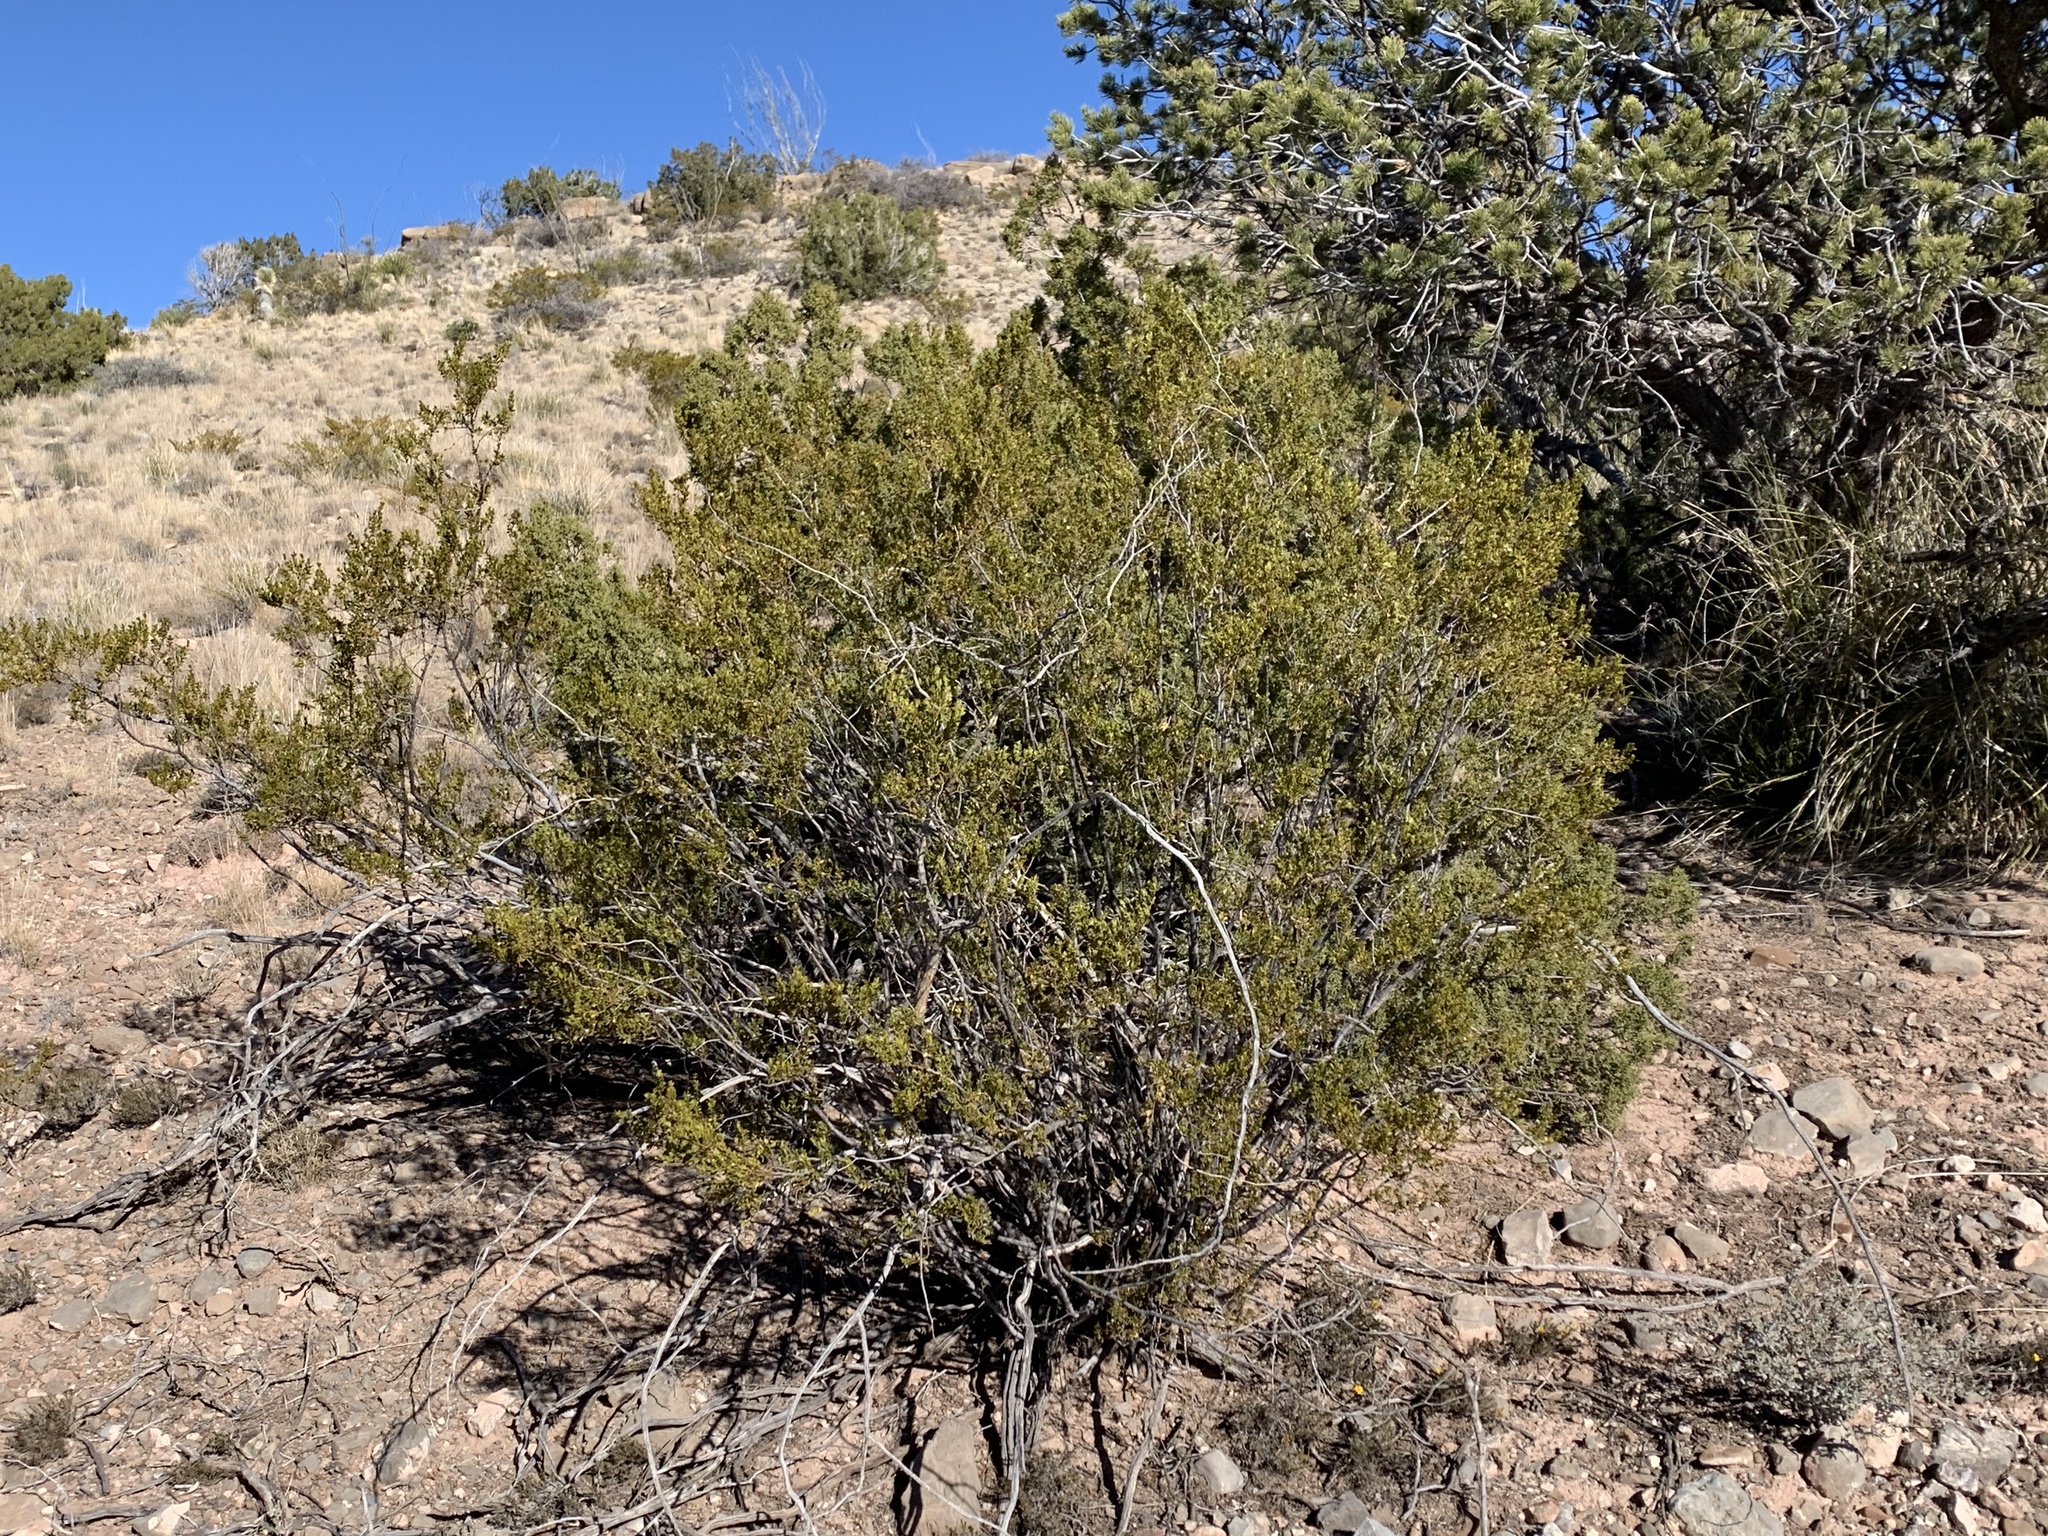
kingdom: Plantae
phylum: Tracheophyta
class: Magnoliopsida
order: Zygophyllales
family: Zygophyllaceae
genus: Larrea
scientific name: Larrea tridentata
